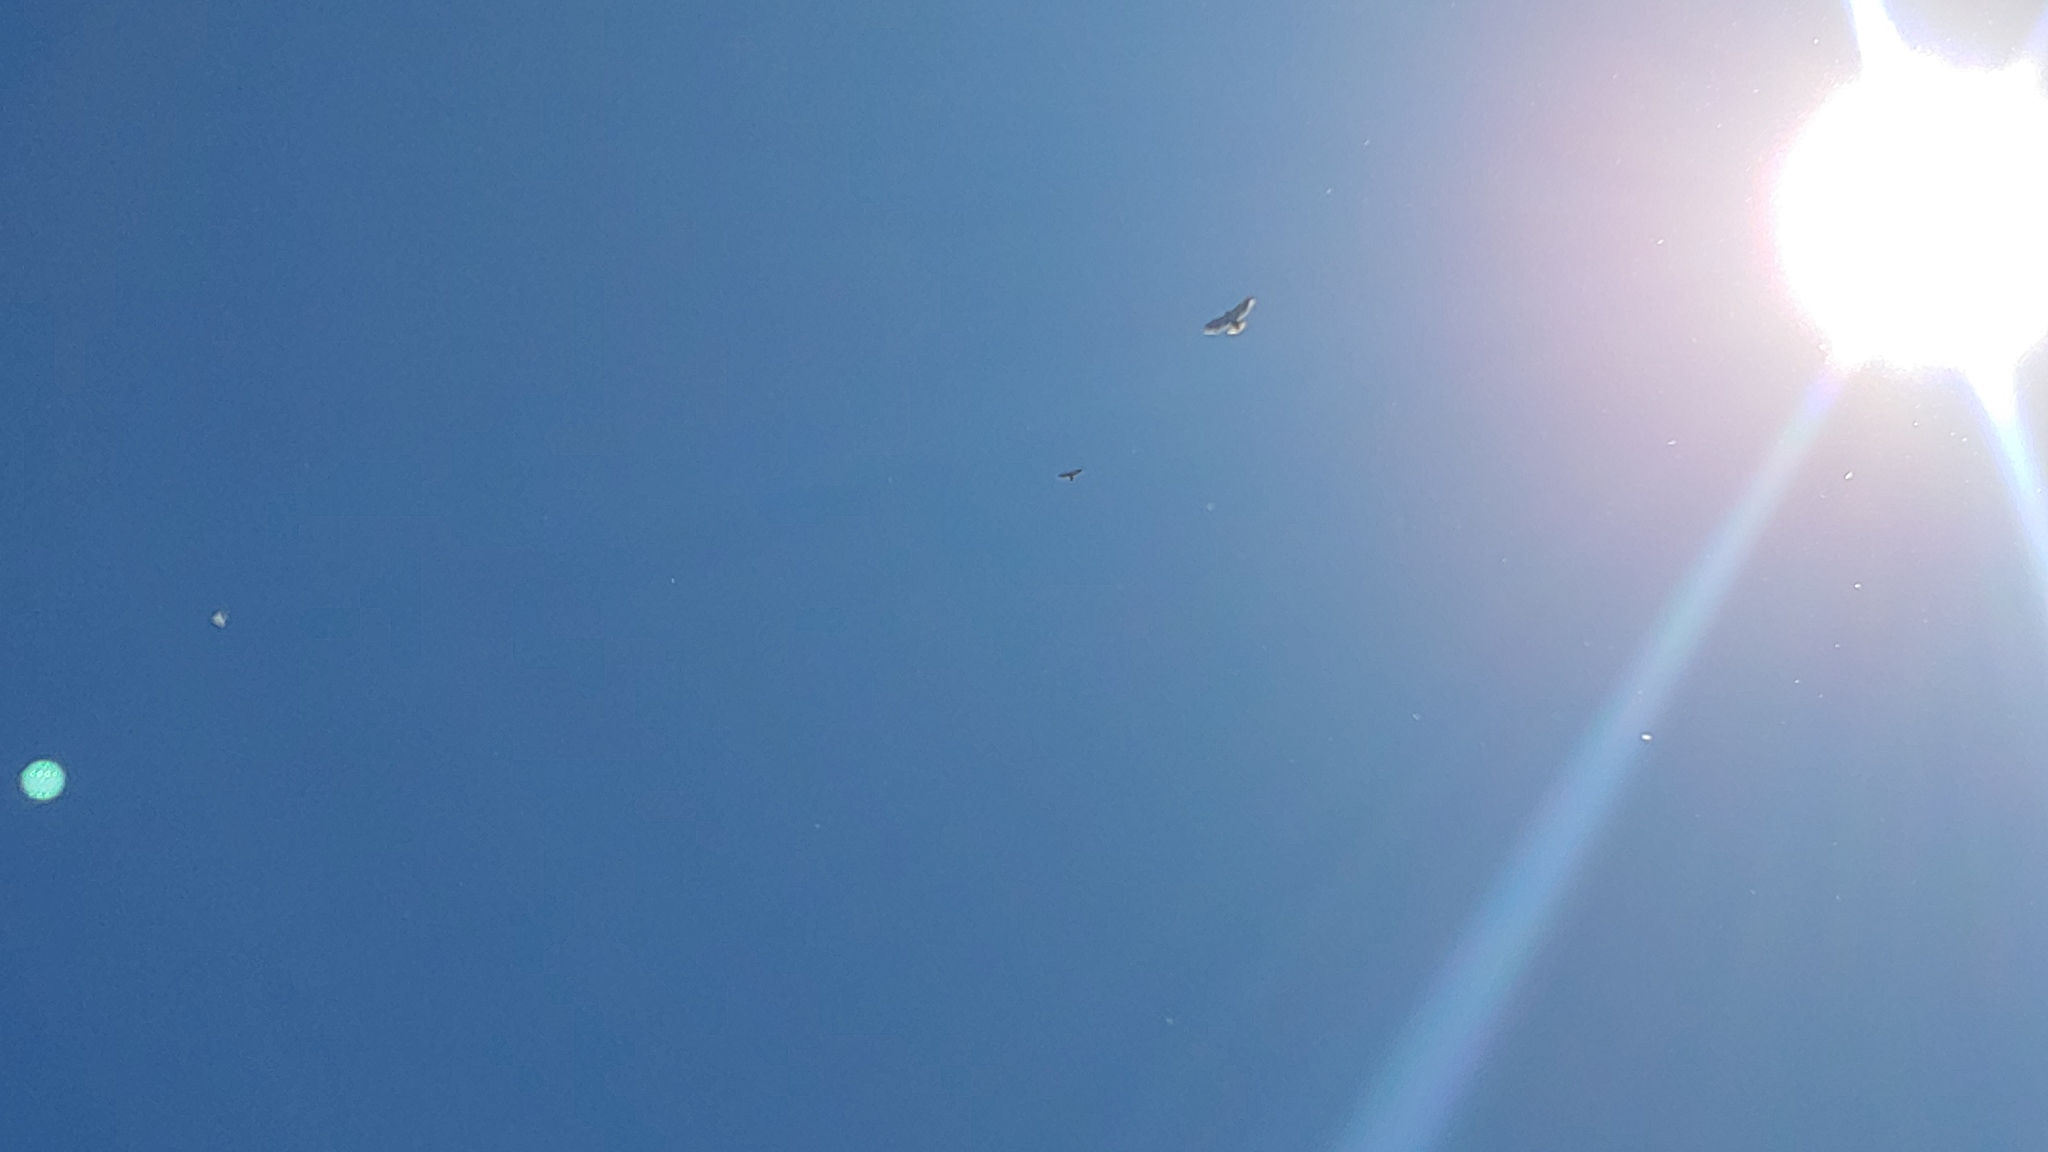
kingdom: Animalia
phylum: Chordata
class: Aves
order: Accipitriformes
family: Accipitridae
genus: Buteo
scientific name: Buteo jamaicensis
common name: Red-tailed hawk
